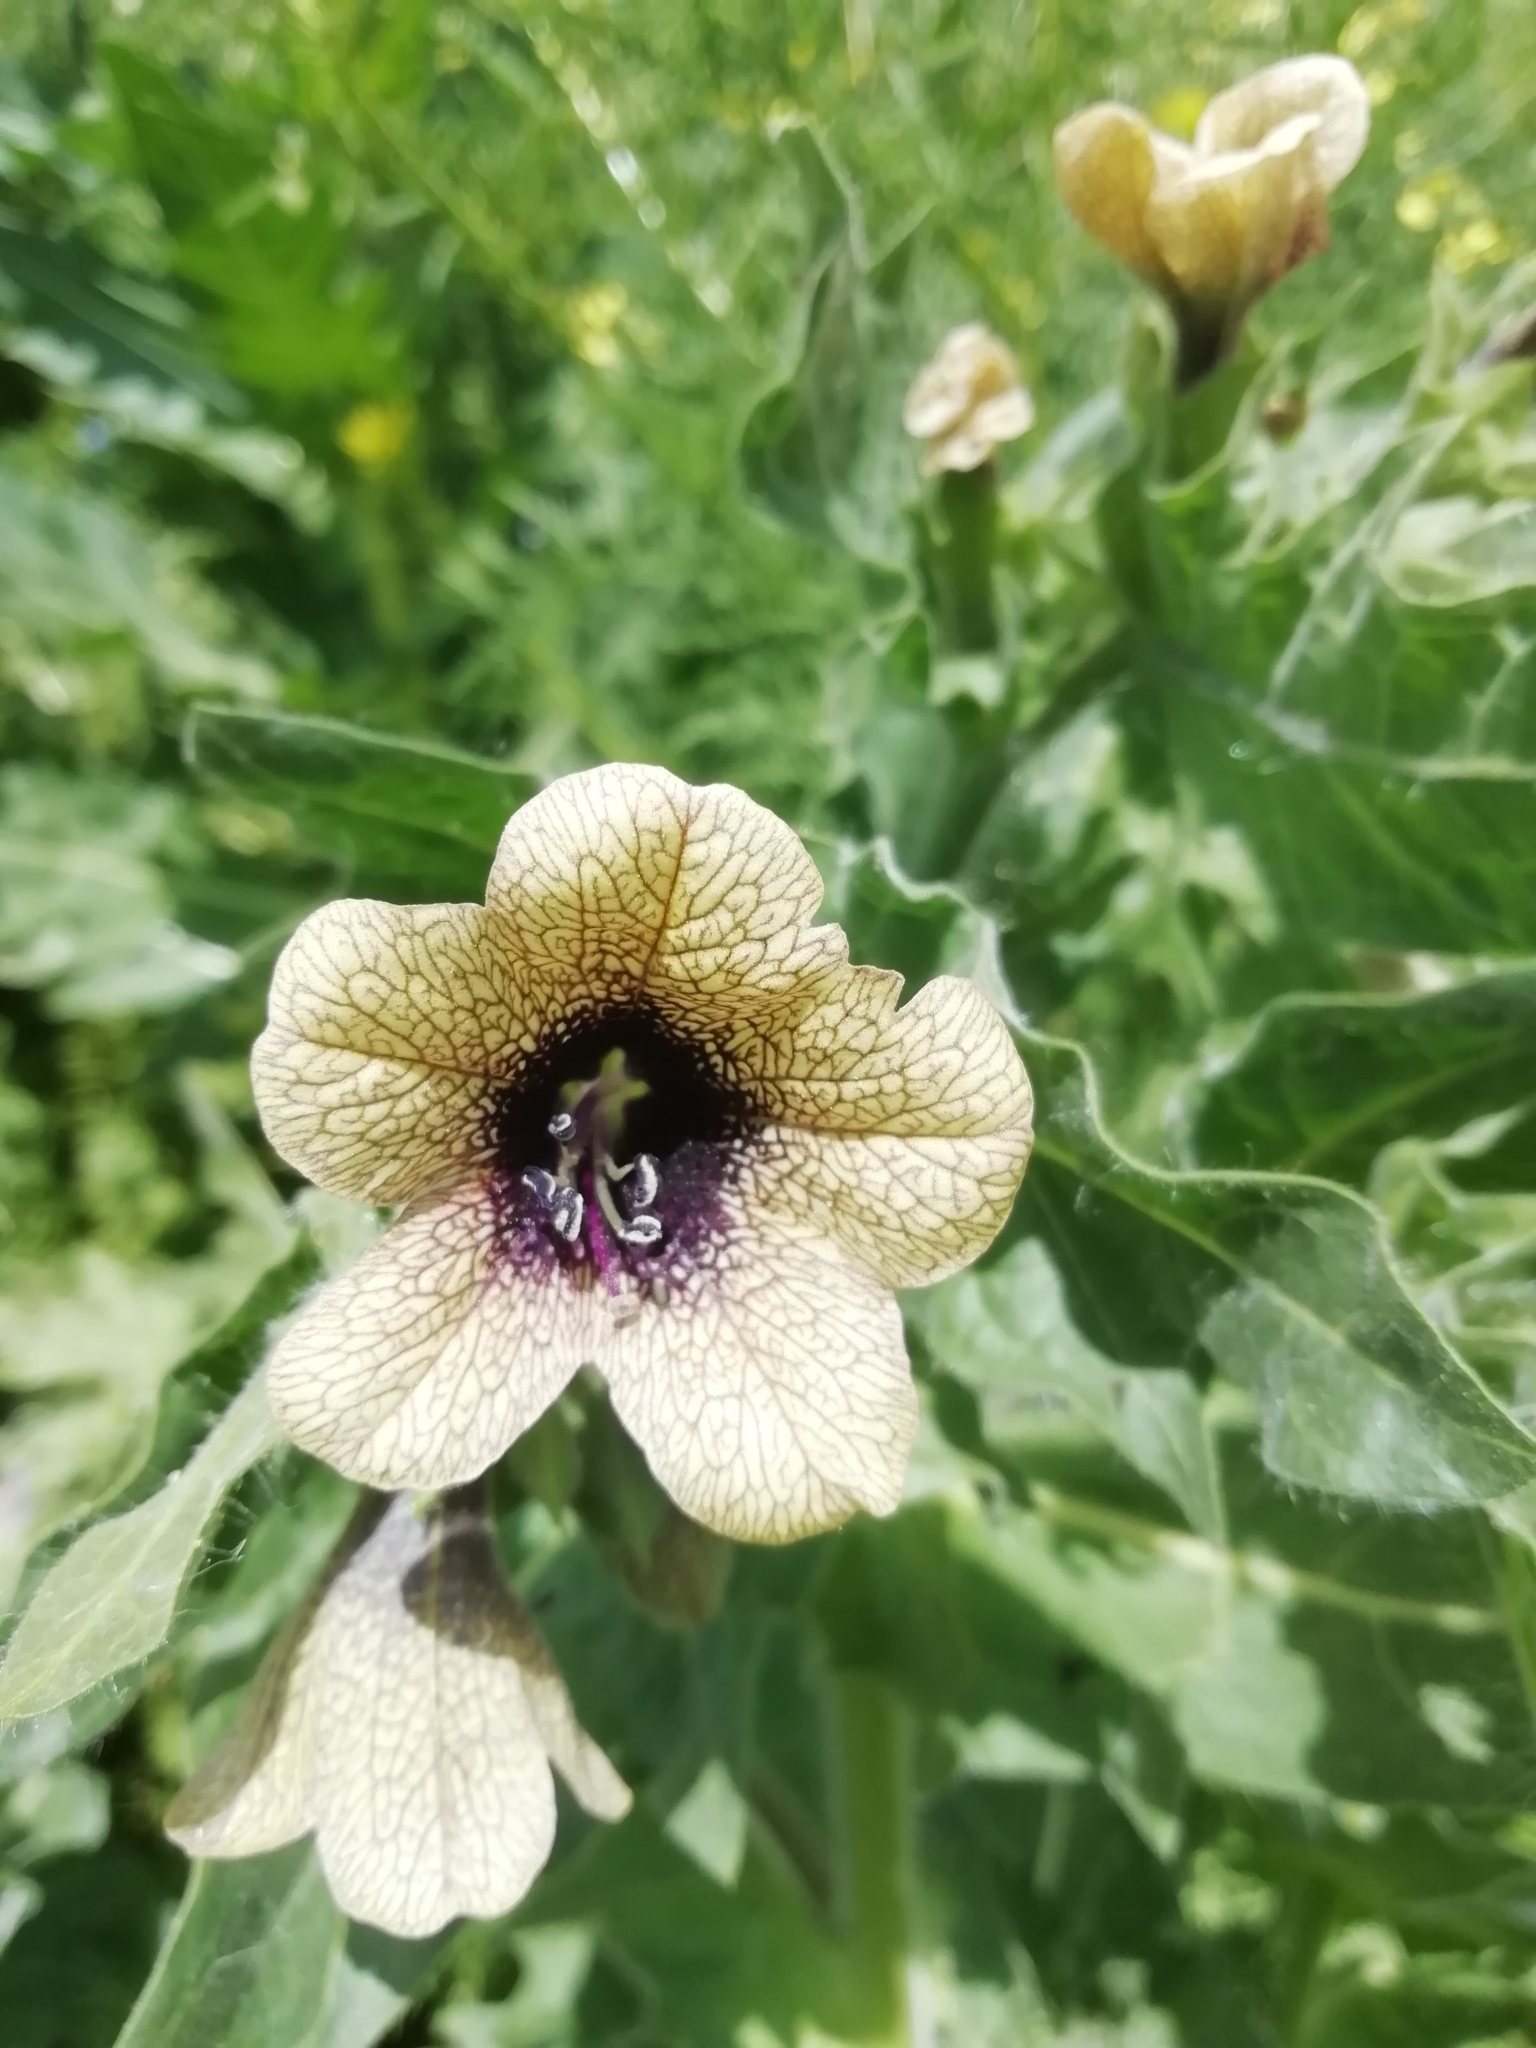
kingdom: Plantae
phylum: Tracheophyta
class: Magnoliopsida
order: Solanales
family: Solanaceae
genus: Hyoscyamus
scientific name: Hyoscyamus niger
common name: Henbane
